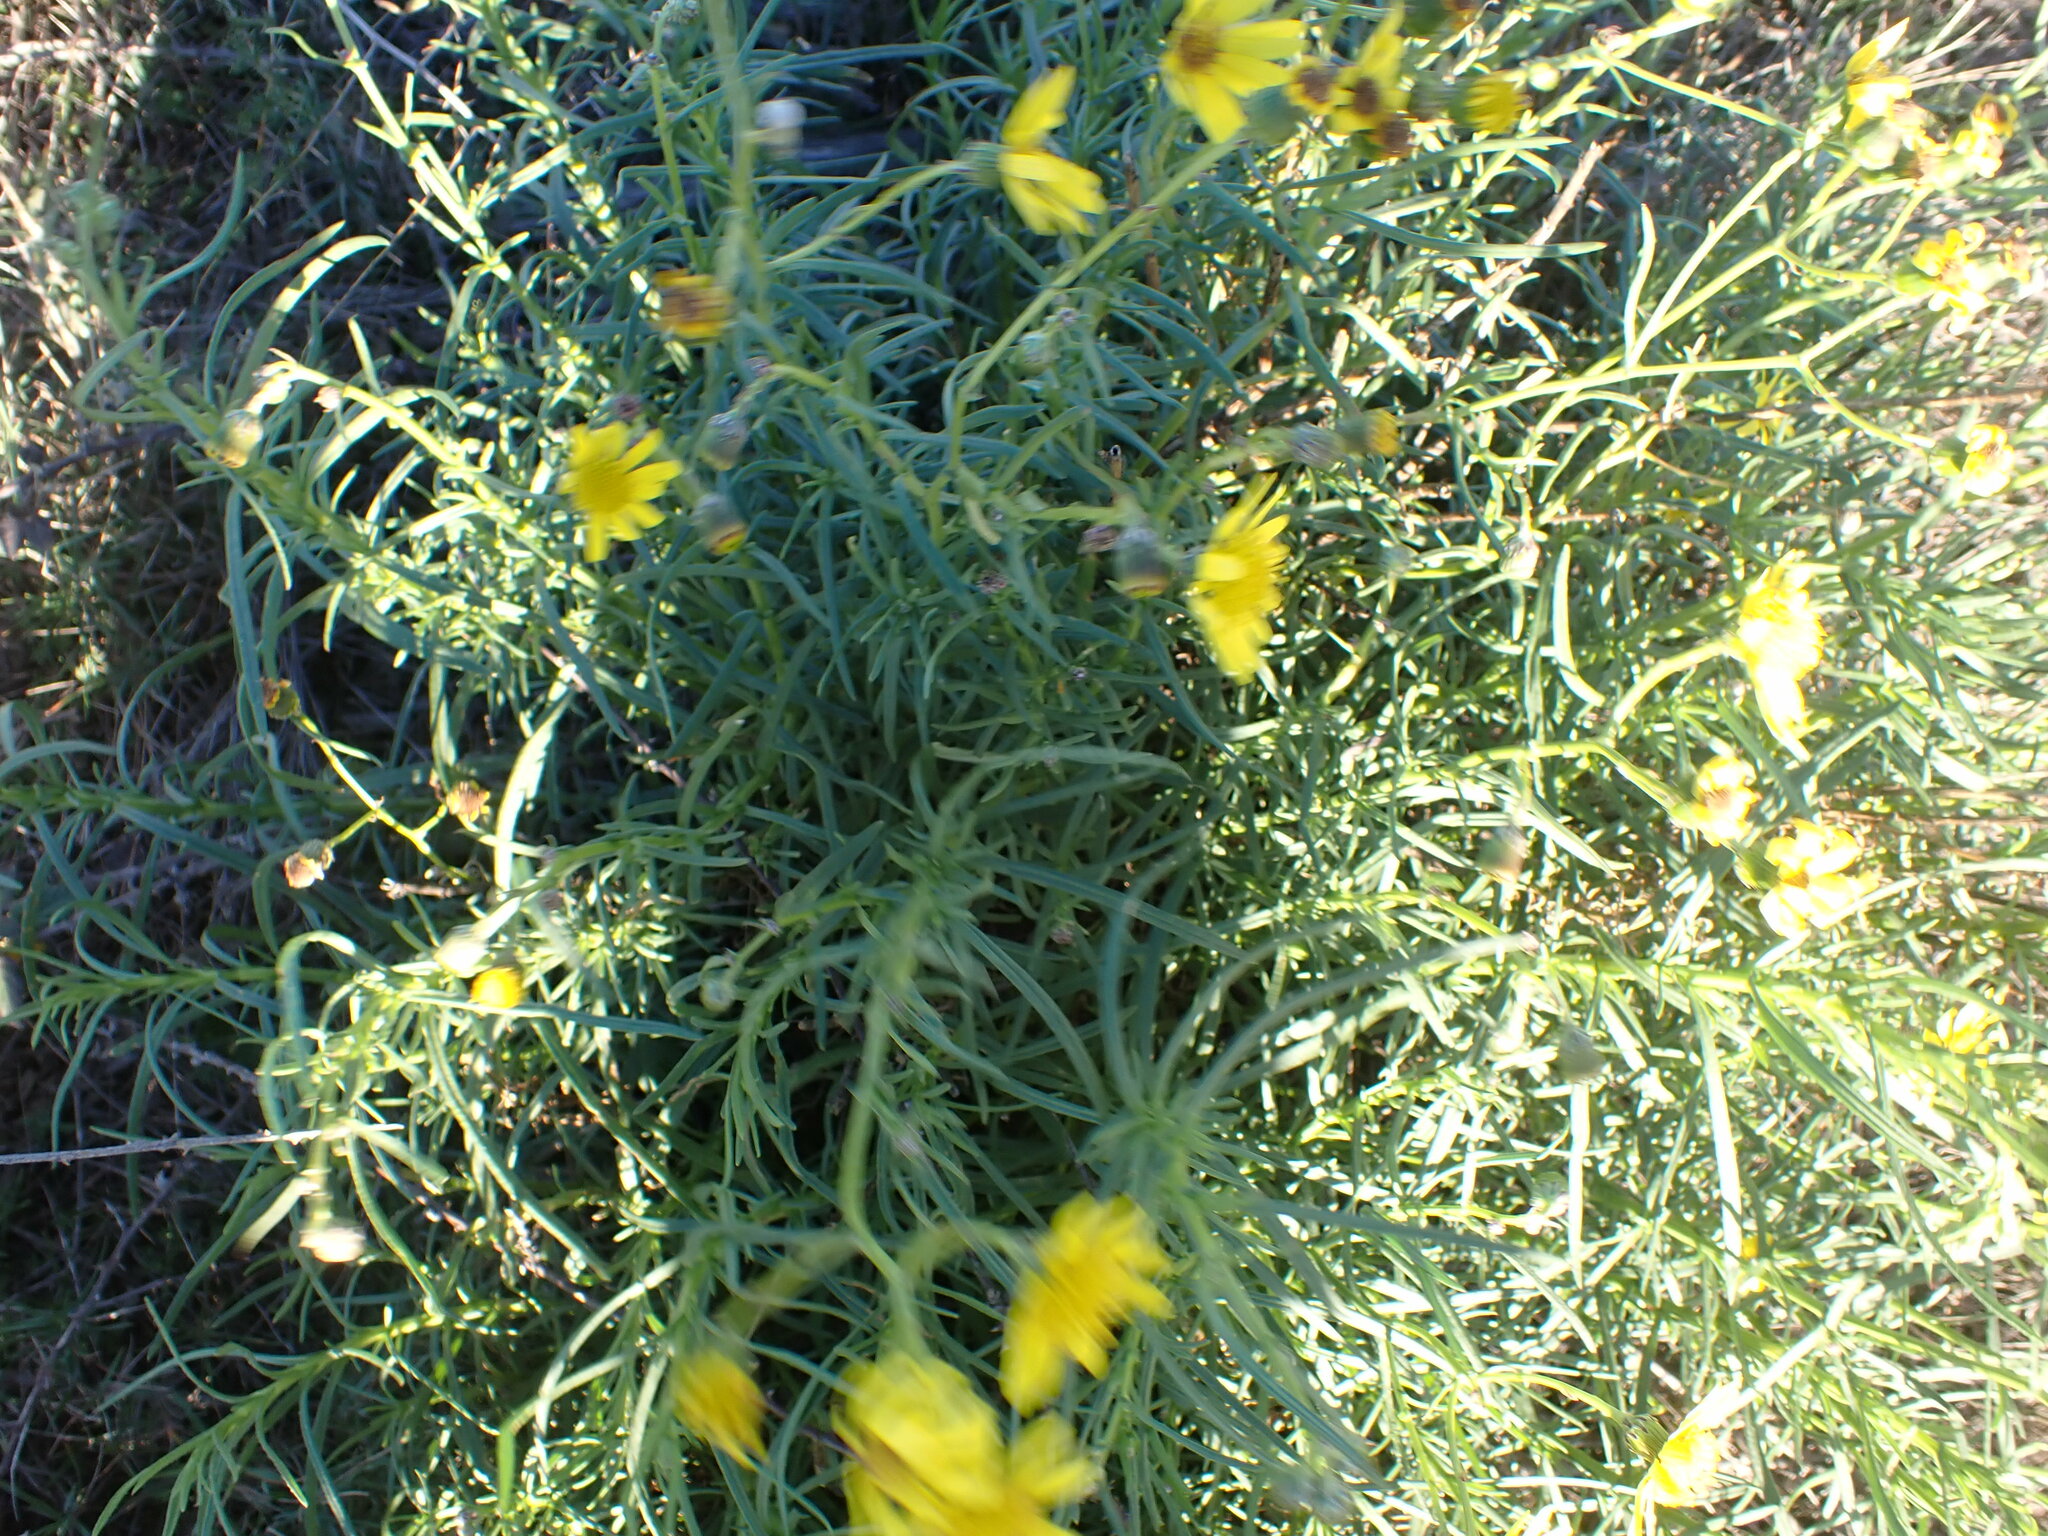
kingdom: Plantae
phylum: Tracheophyta
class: Magnoliopsida
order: Asterales
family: Asteraceae
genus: Senecio
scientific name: Senecio inaequidens
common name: Narrow-leaved ragwort
